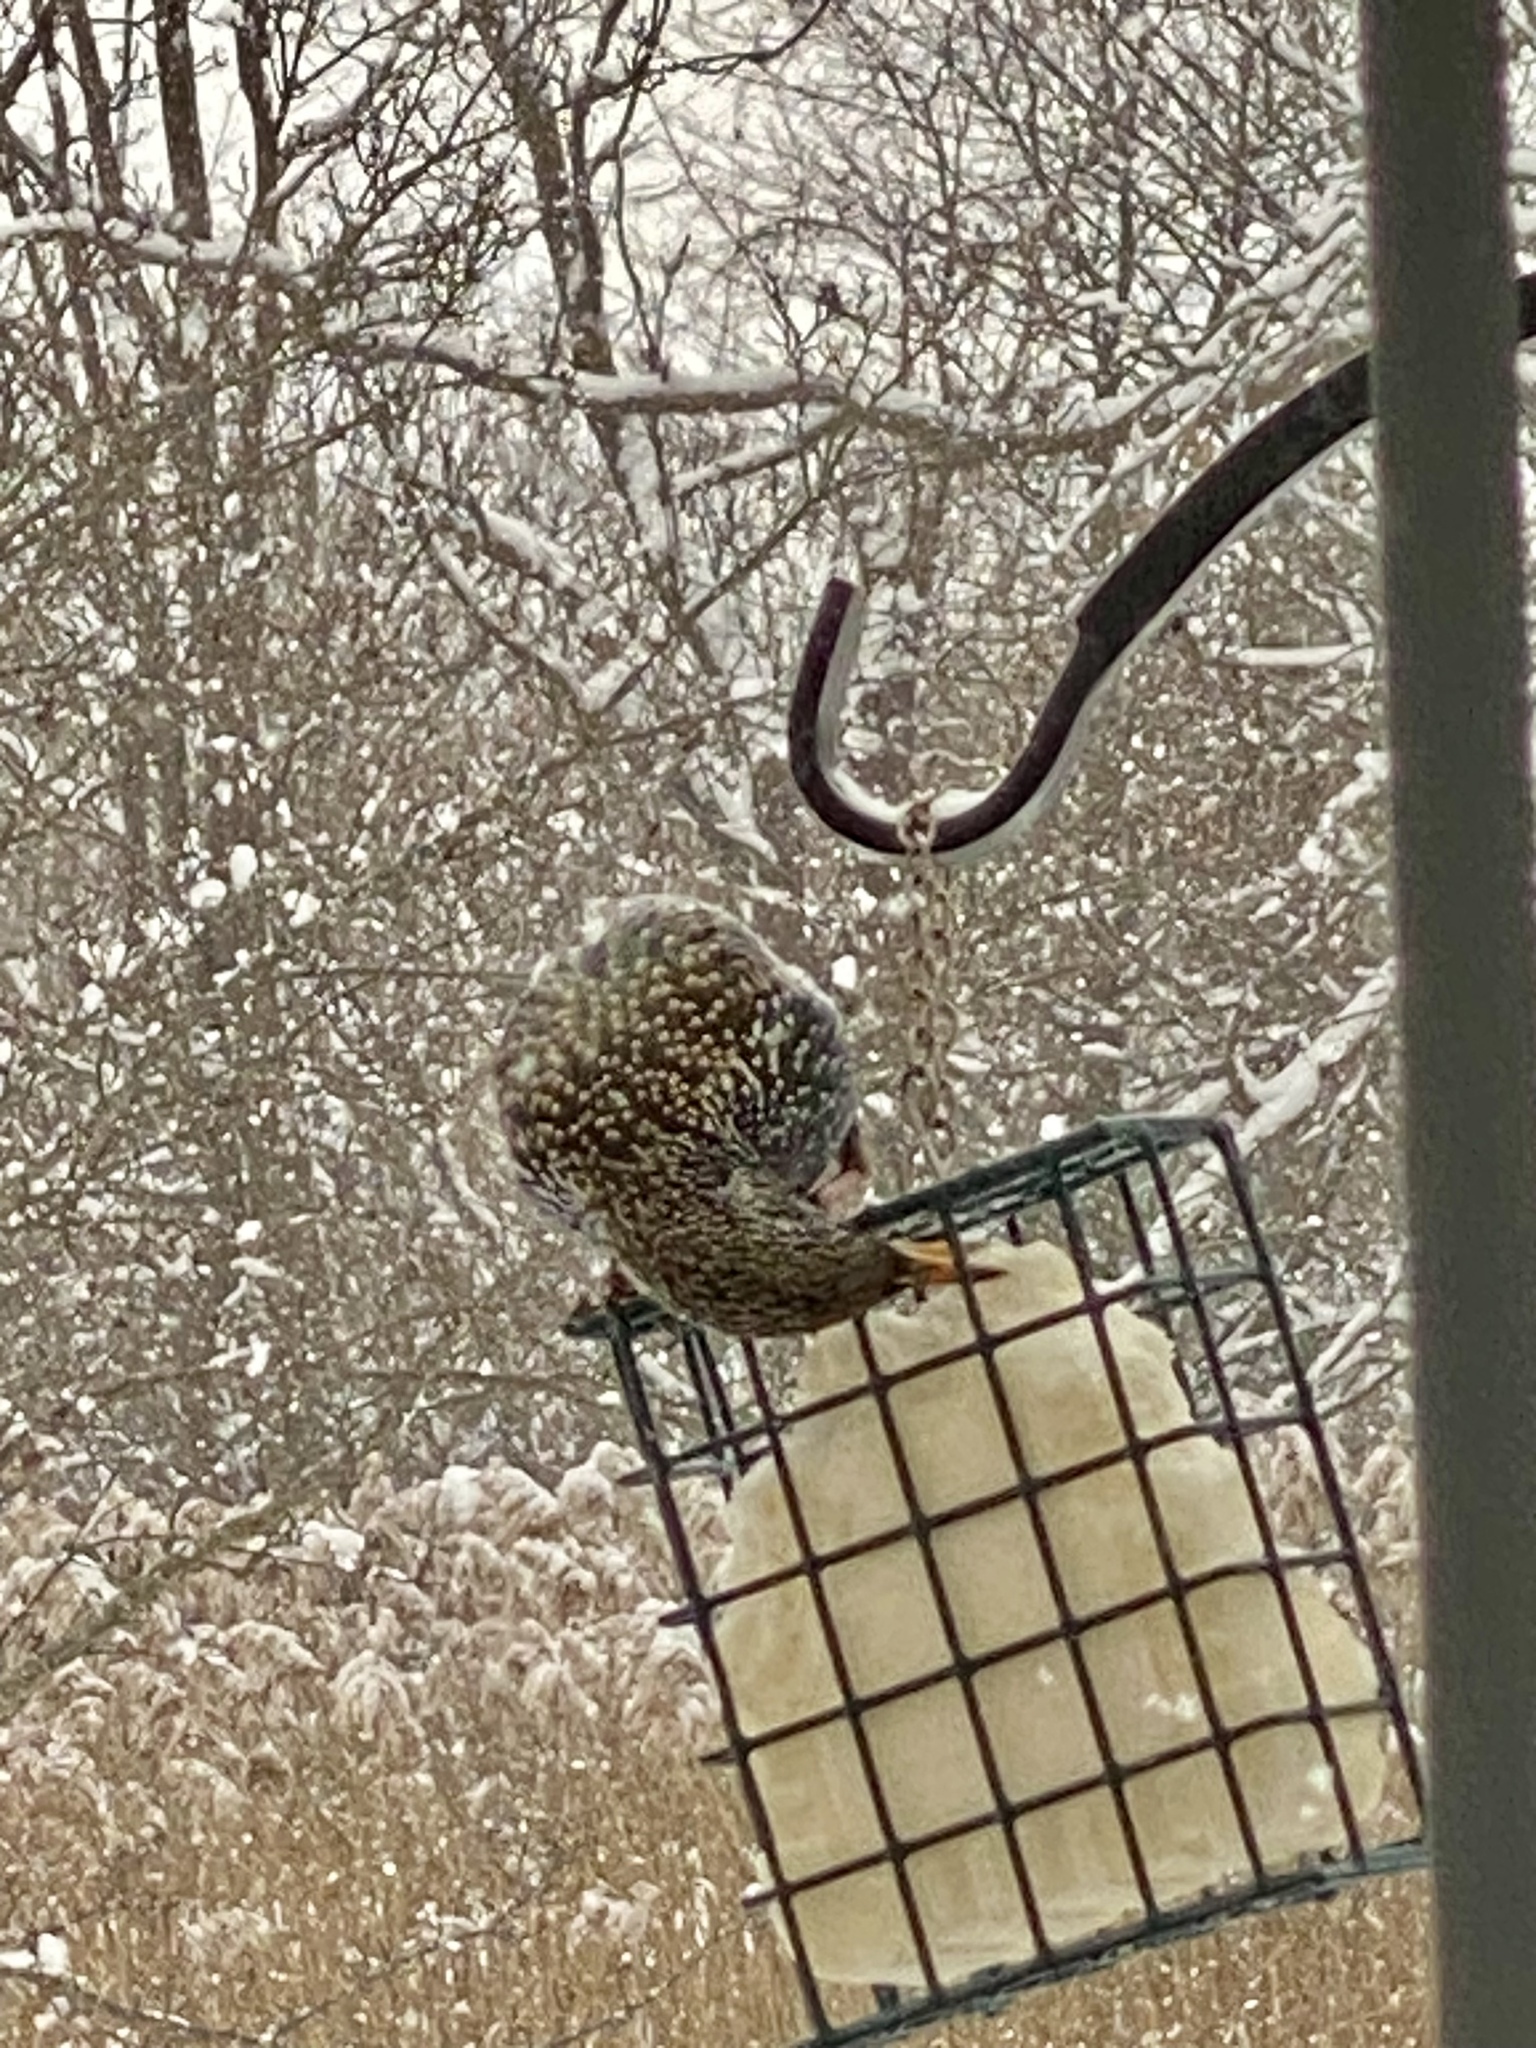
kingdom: Animalia
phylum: Chordata
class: Aves
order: Passeriformes
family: Sturnidae
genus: Sturnus
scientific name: Sturnus vulgaris
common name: Common starling
